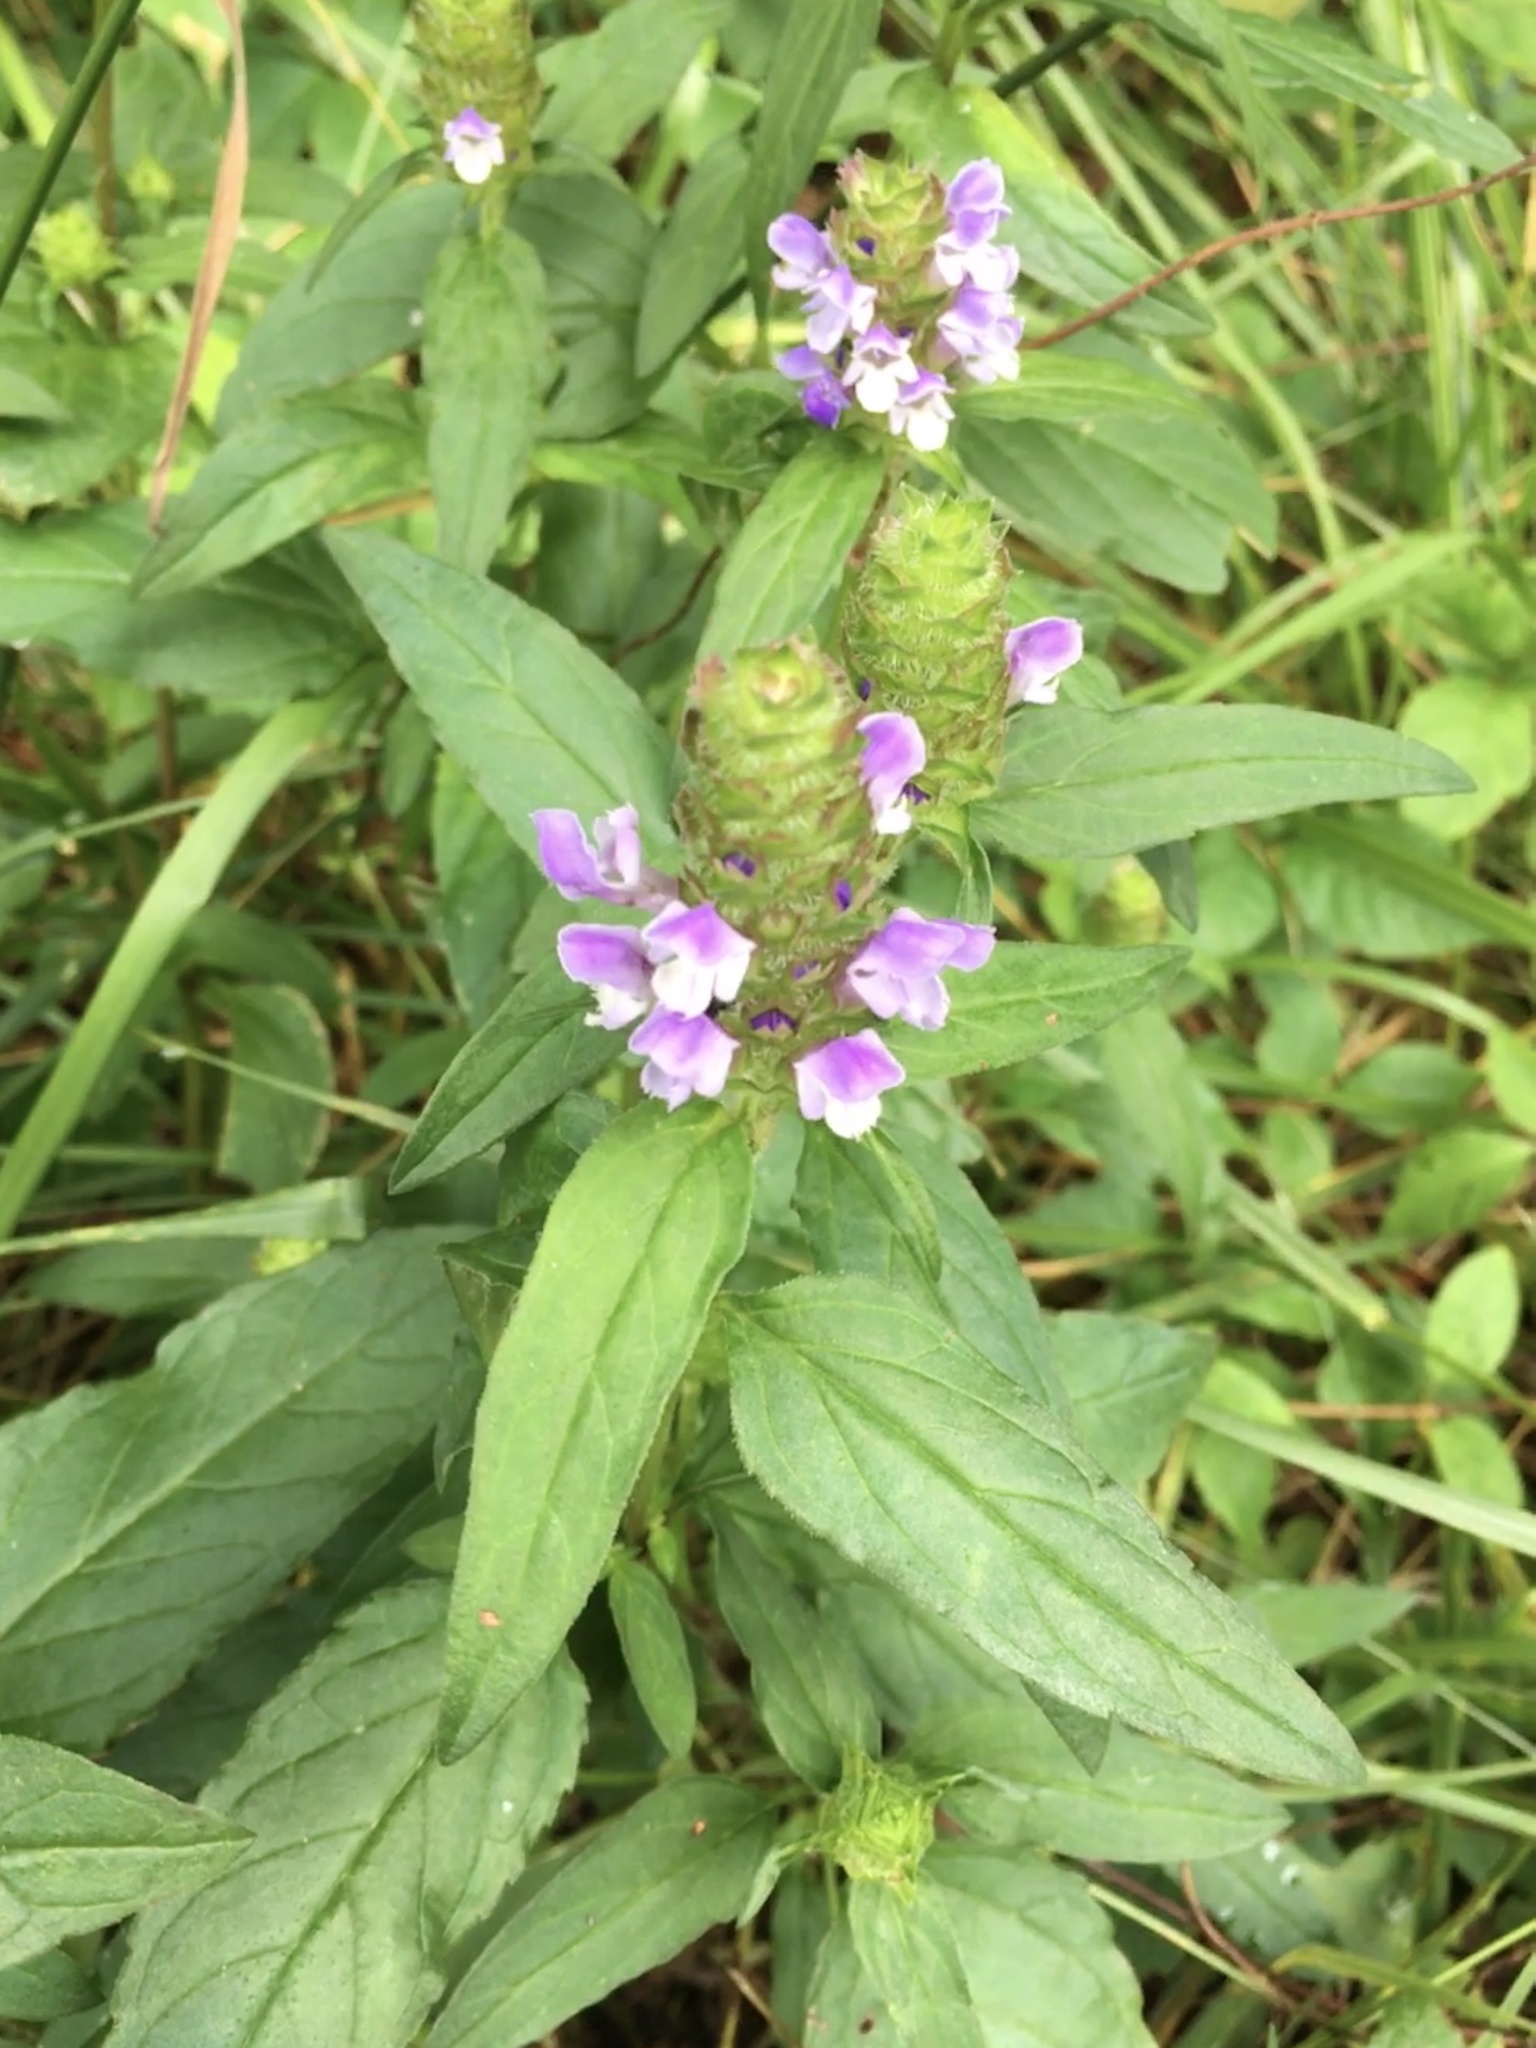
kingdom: Plantae
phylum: Tracheophyta
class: Magnoliopsida
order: Lamiales
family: Lamiaceae
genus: Prunella
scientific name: Prunella vulgaris
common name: Heal-all
